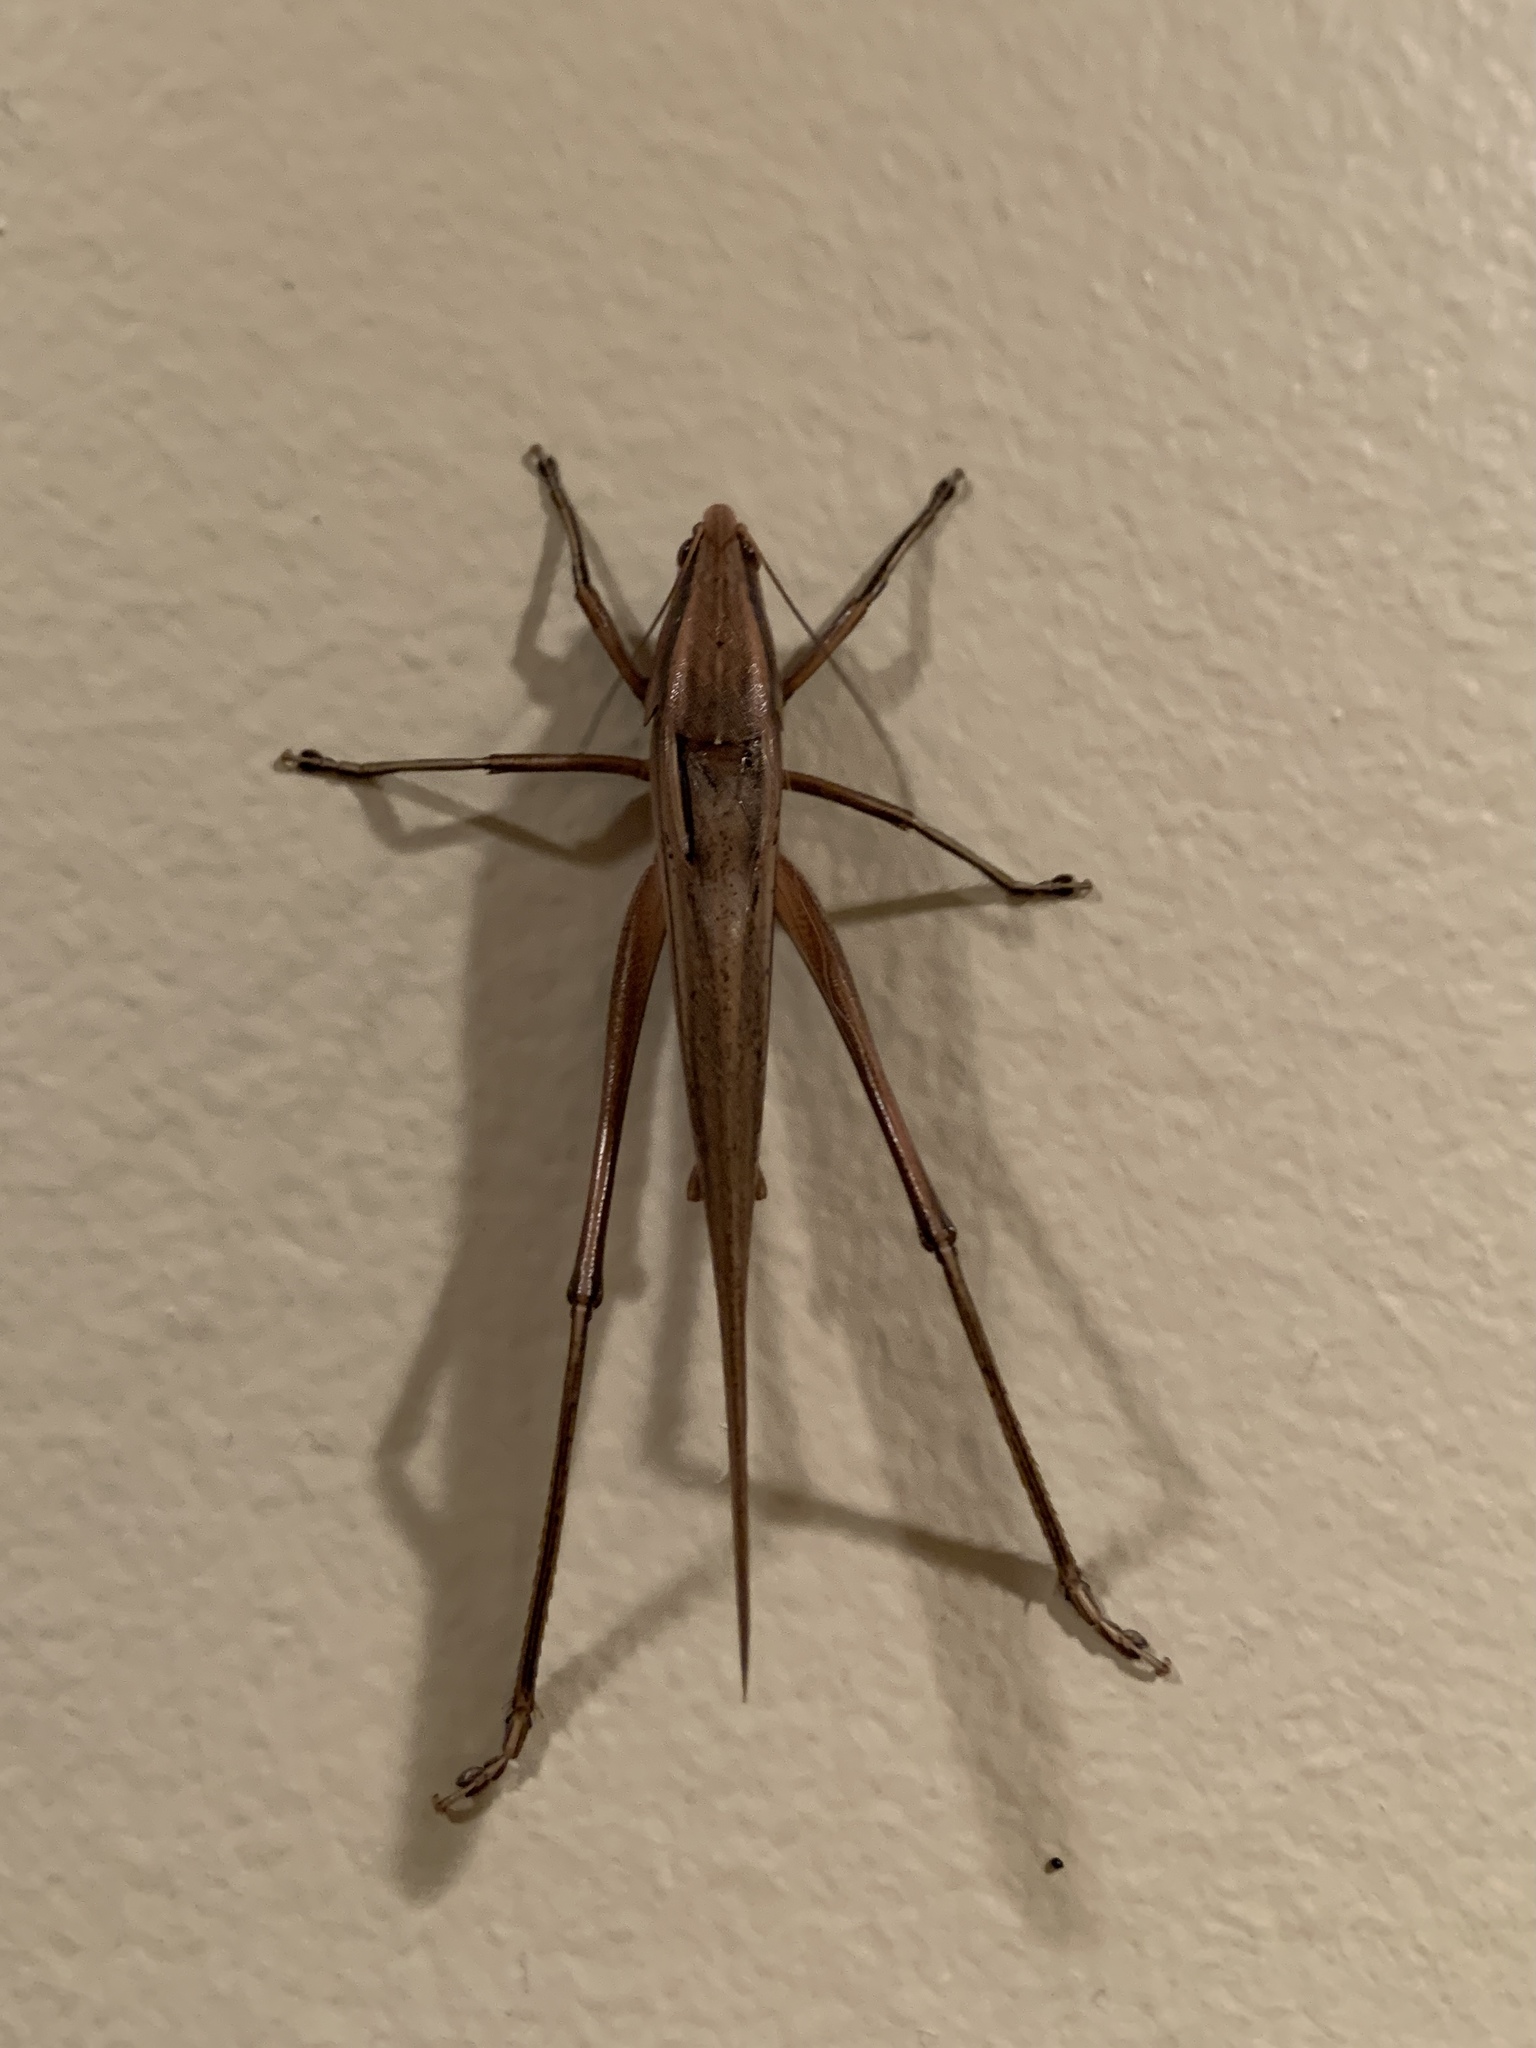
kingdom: Animalia
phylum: Arthropoda
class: Insecta
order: Orthoptera
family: Tettigoniidae
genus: Neoconocephalus
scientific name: Neoconocephalus triops
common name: Broad-tipped conehead
